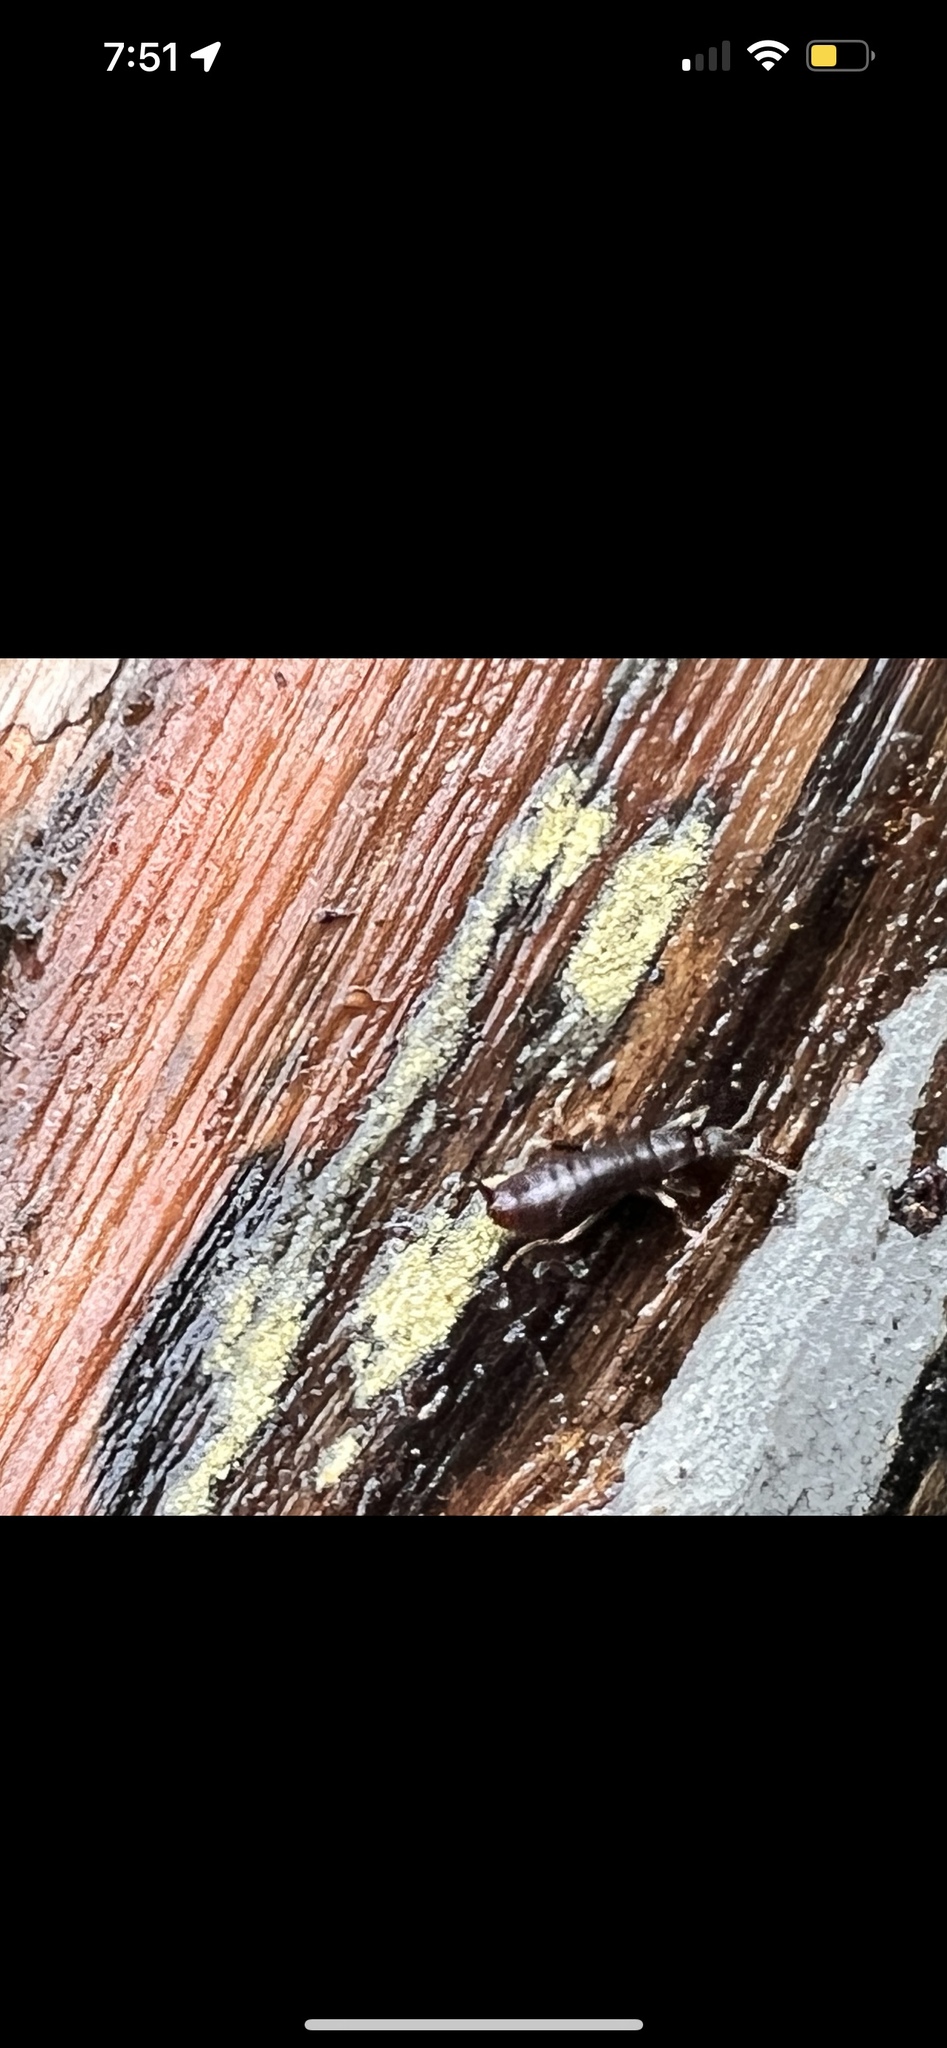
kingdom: Animalia
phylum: Arthropoda
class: Insecta
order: Dermaptera
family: Anisolabididae
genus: Metisolabis
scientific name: Metisolabis punctata
